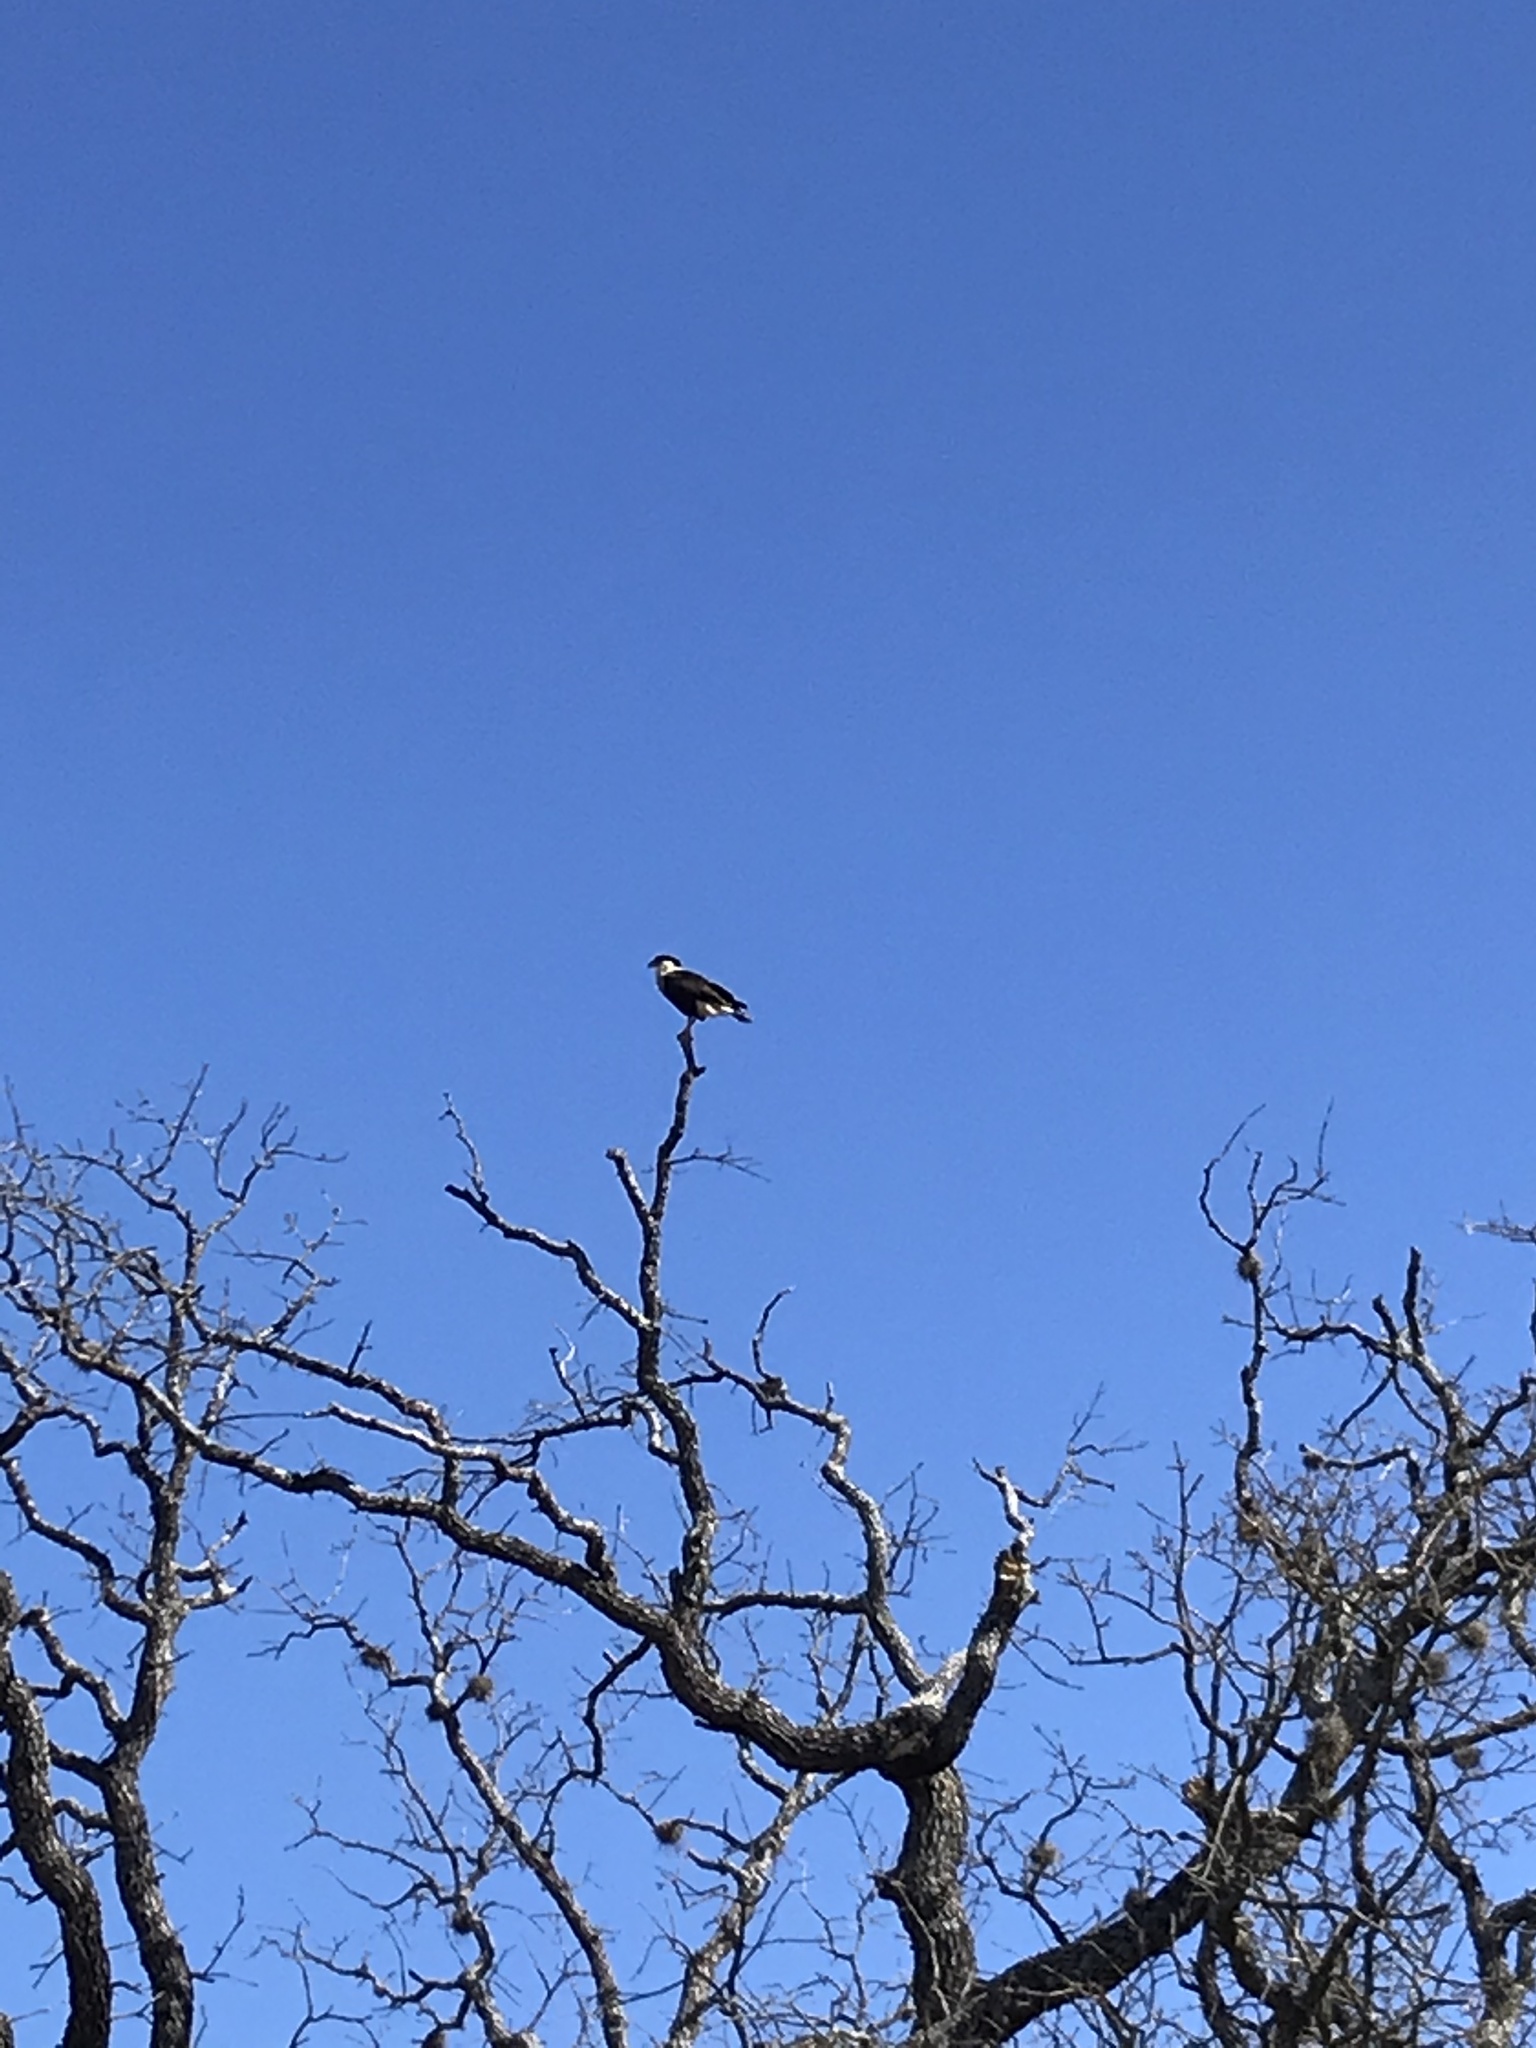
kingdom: Animalia
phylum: Chordata
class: Aves
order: Falconiformes
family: Falconidae
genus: Caracara
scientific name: Caracara plancus
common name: Southern caracara
